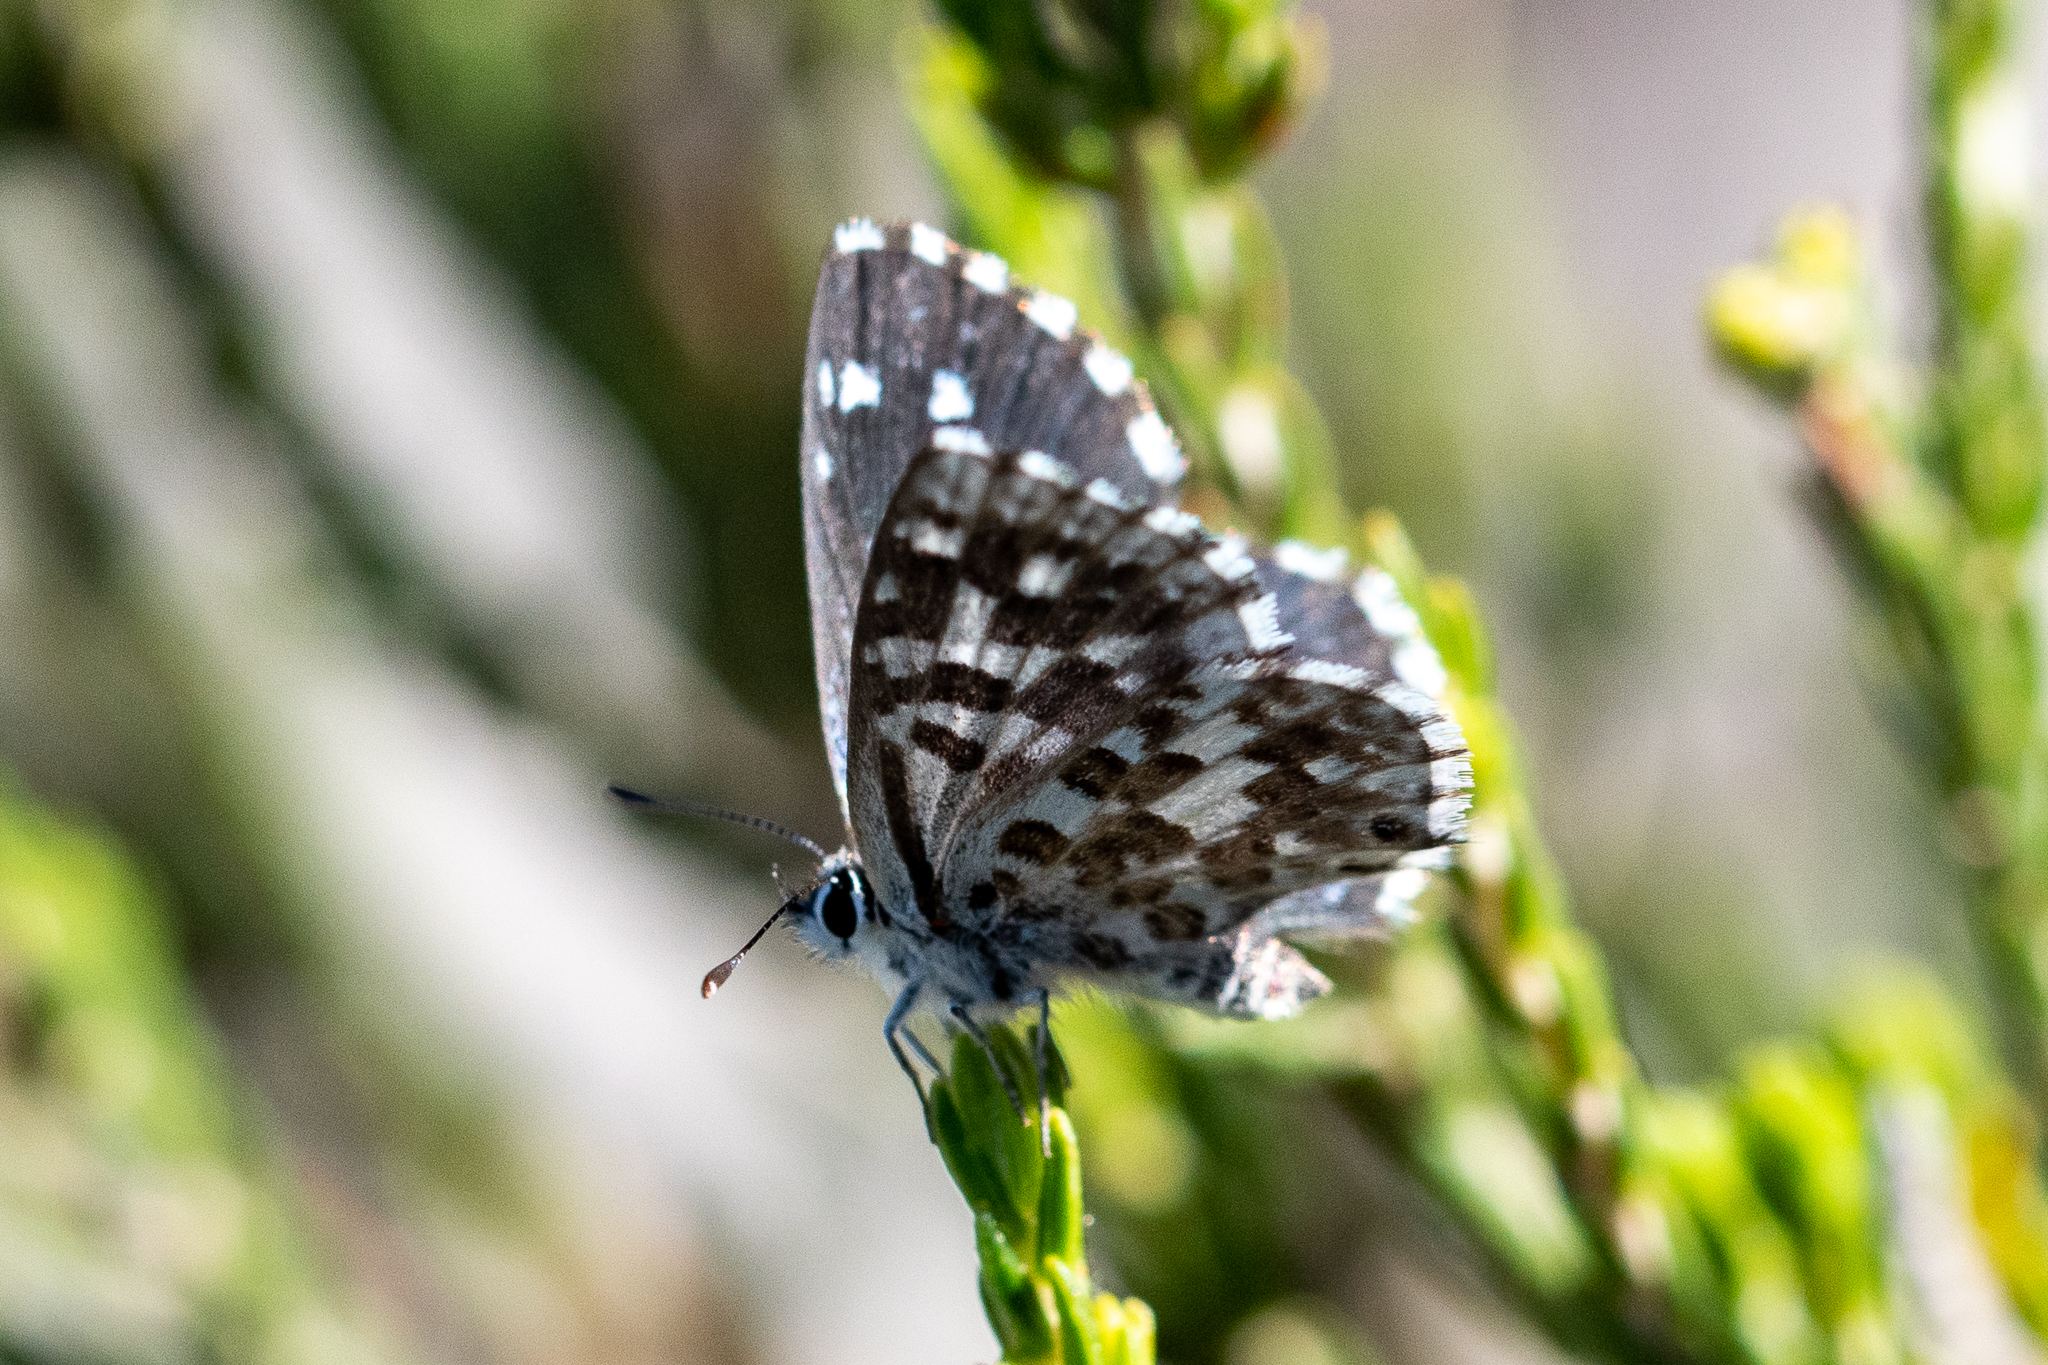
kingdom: Animalia
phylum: Arthropoda
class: Insecta
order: Lepidoptera
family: Lycaenidae
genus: Tarucus
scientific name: Tarucus thespis
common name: Vivid dotted blue
